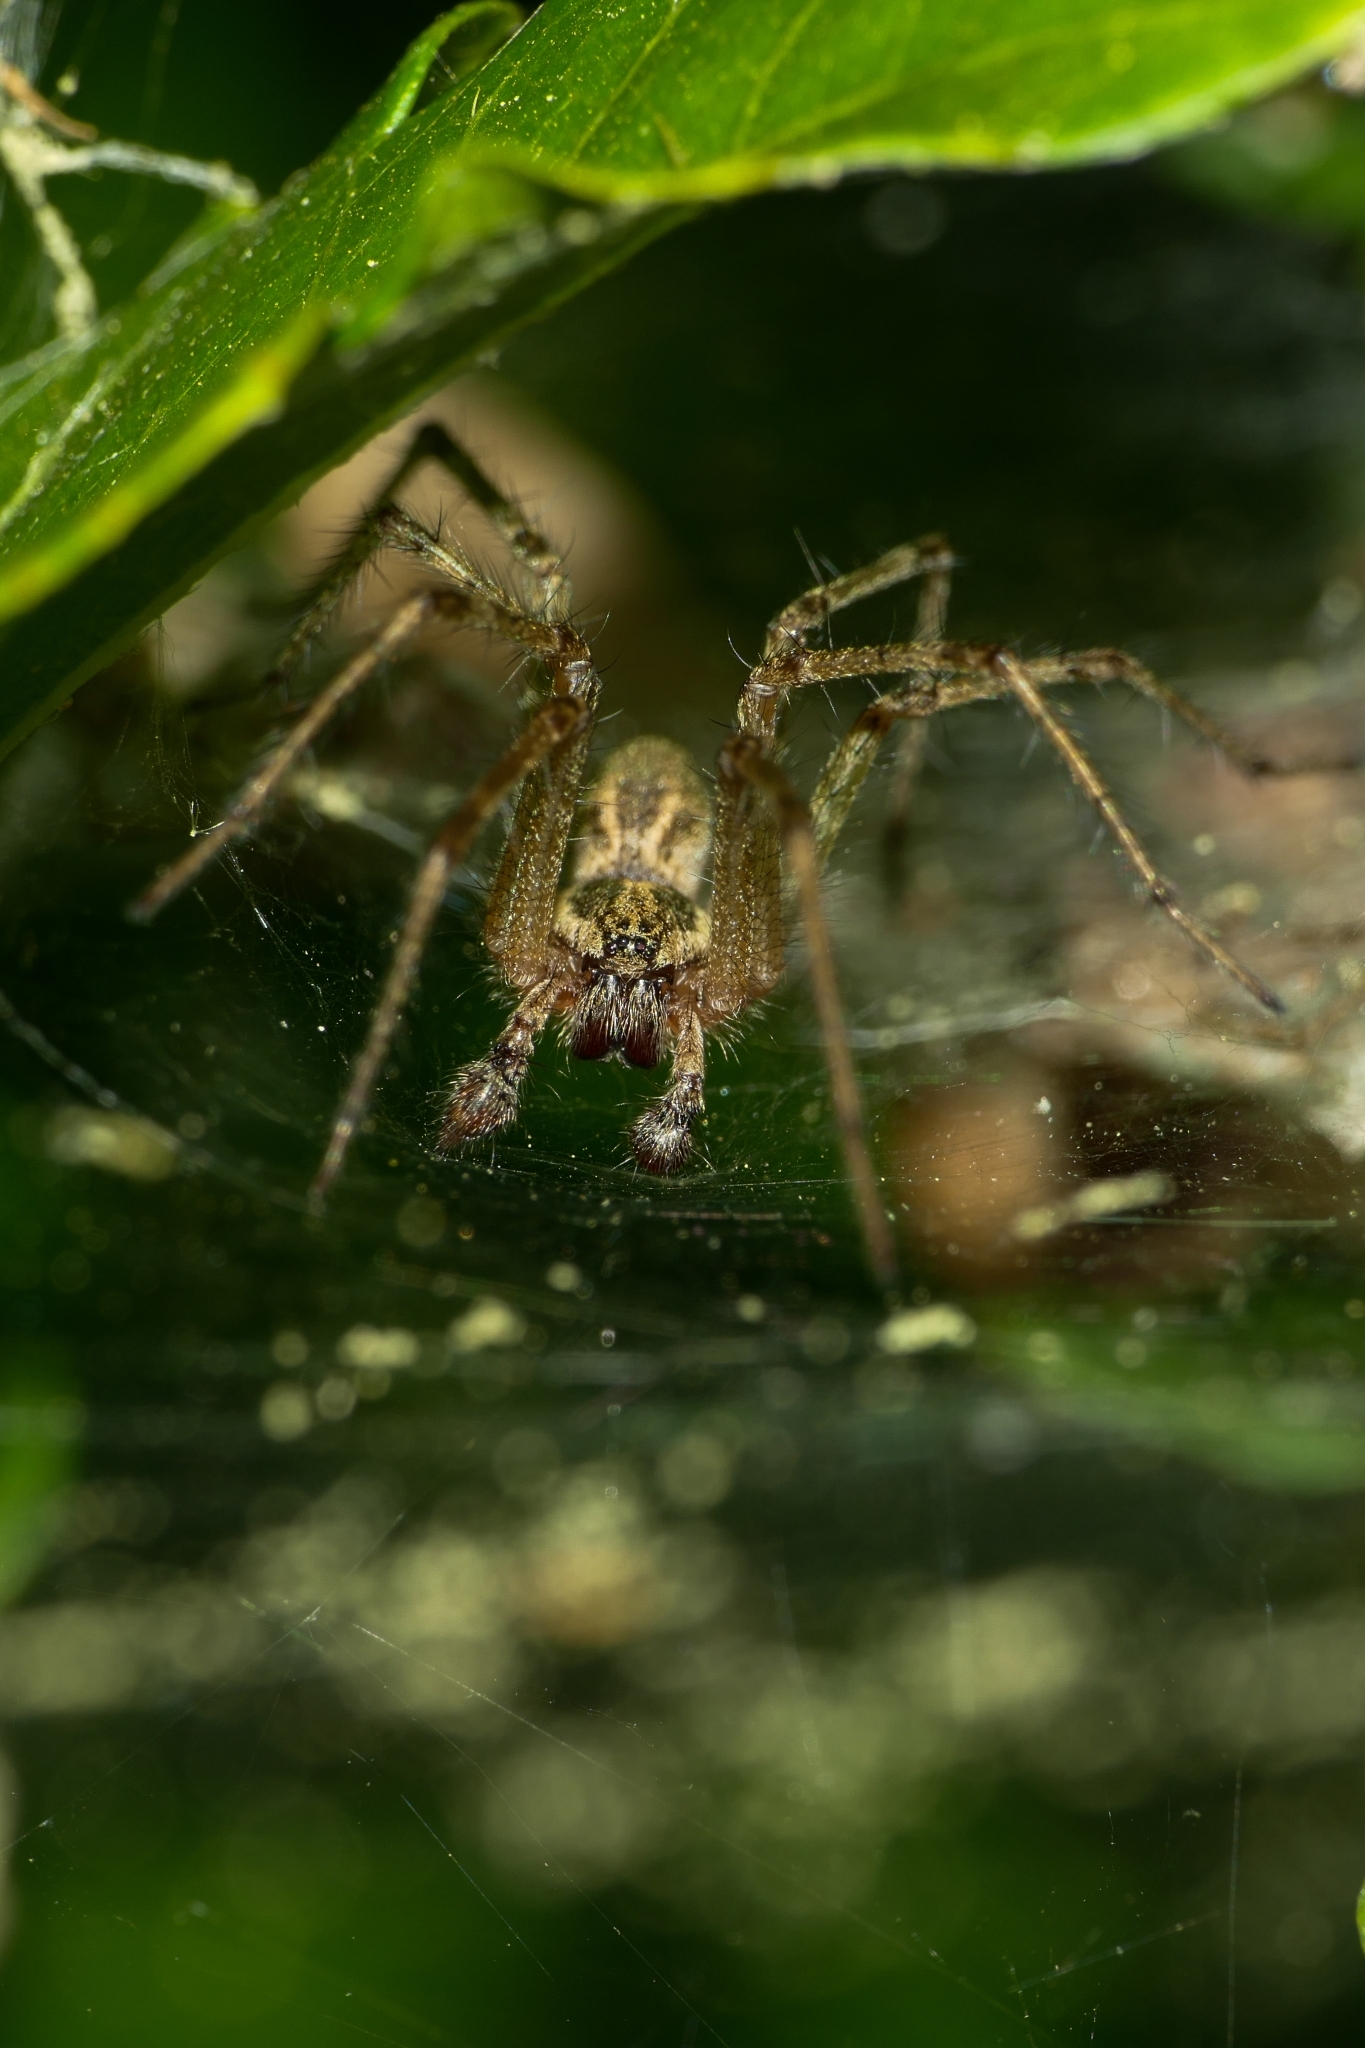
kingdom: Animalia
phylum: Arthropoda
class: Arachnida
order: Araneae
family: Agelenidae
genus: Allagelena
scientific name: Allagelena gracilens
